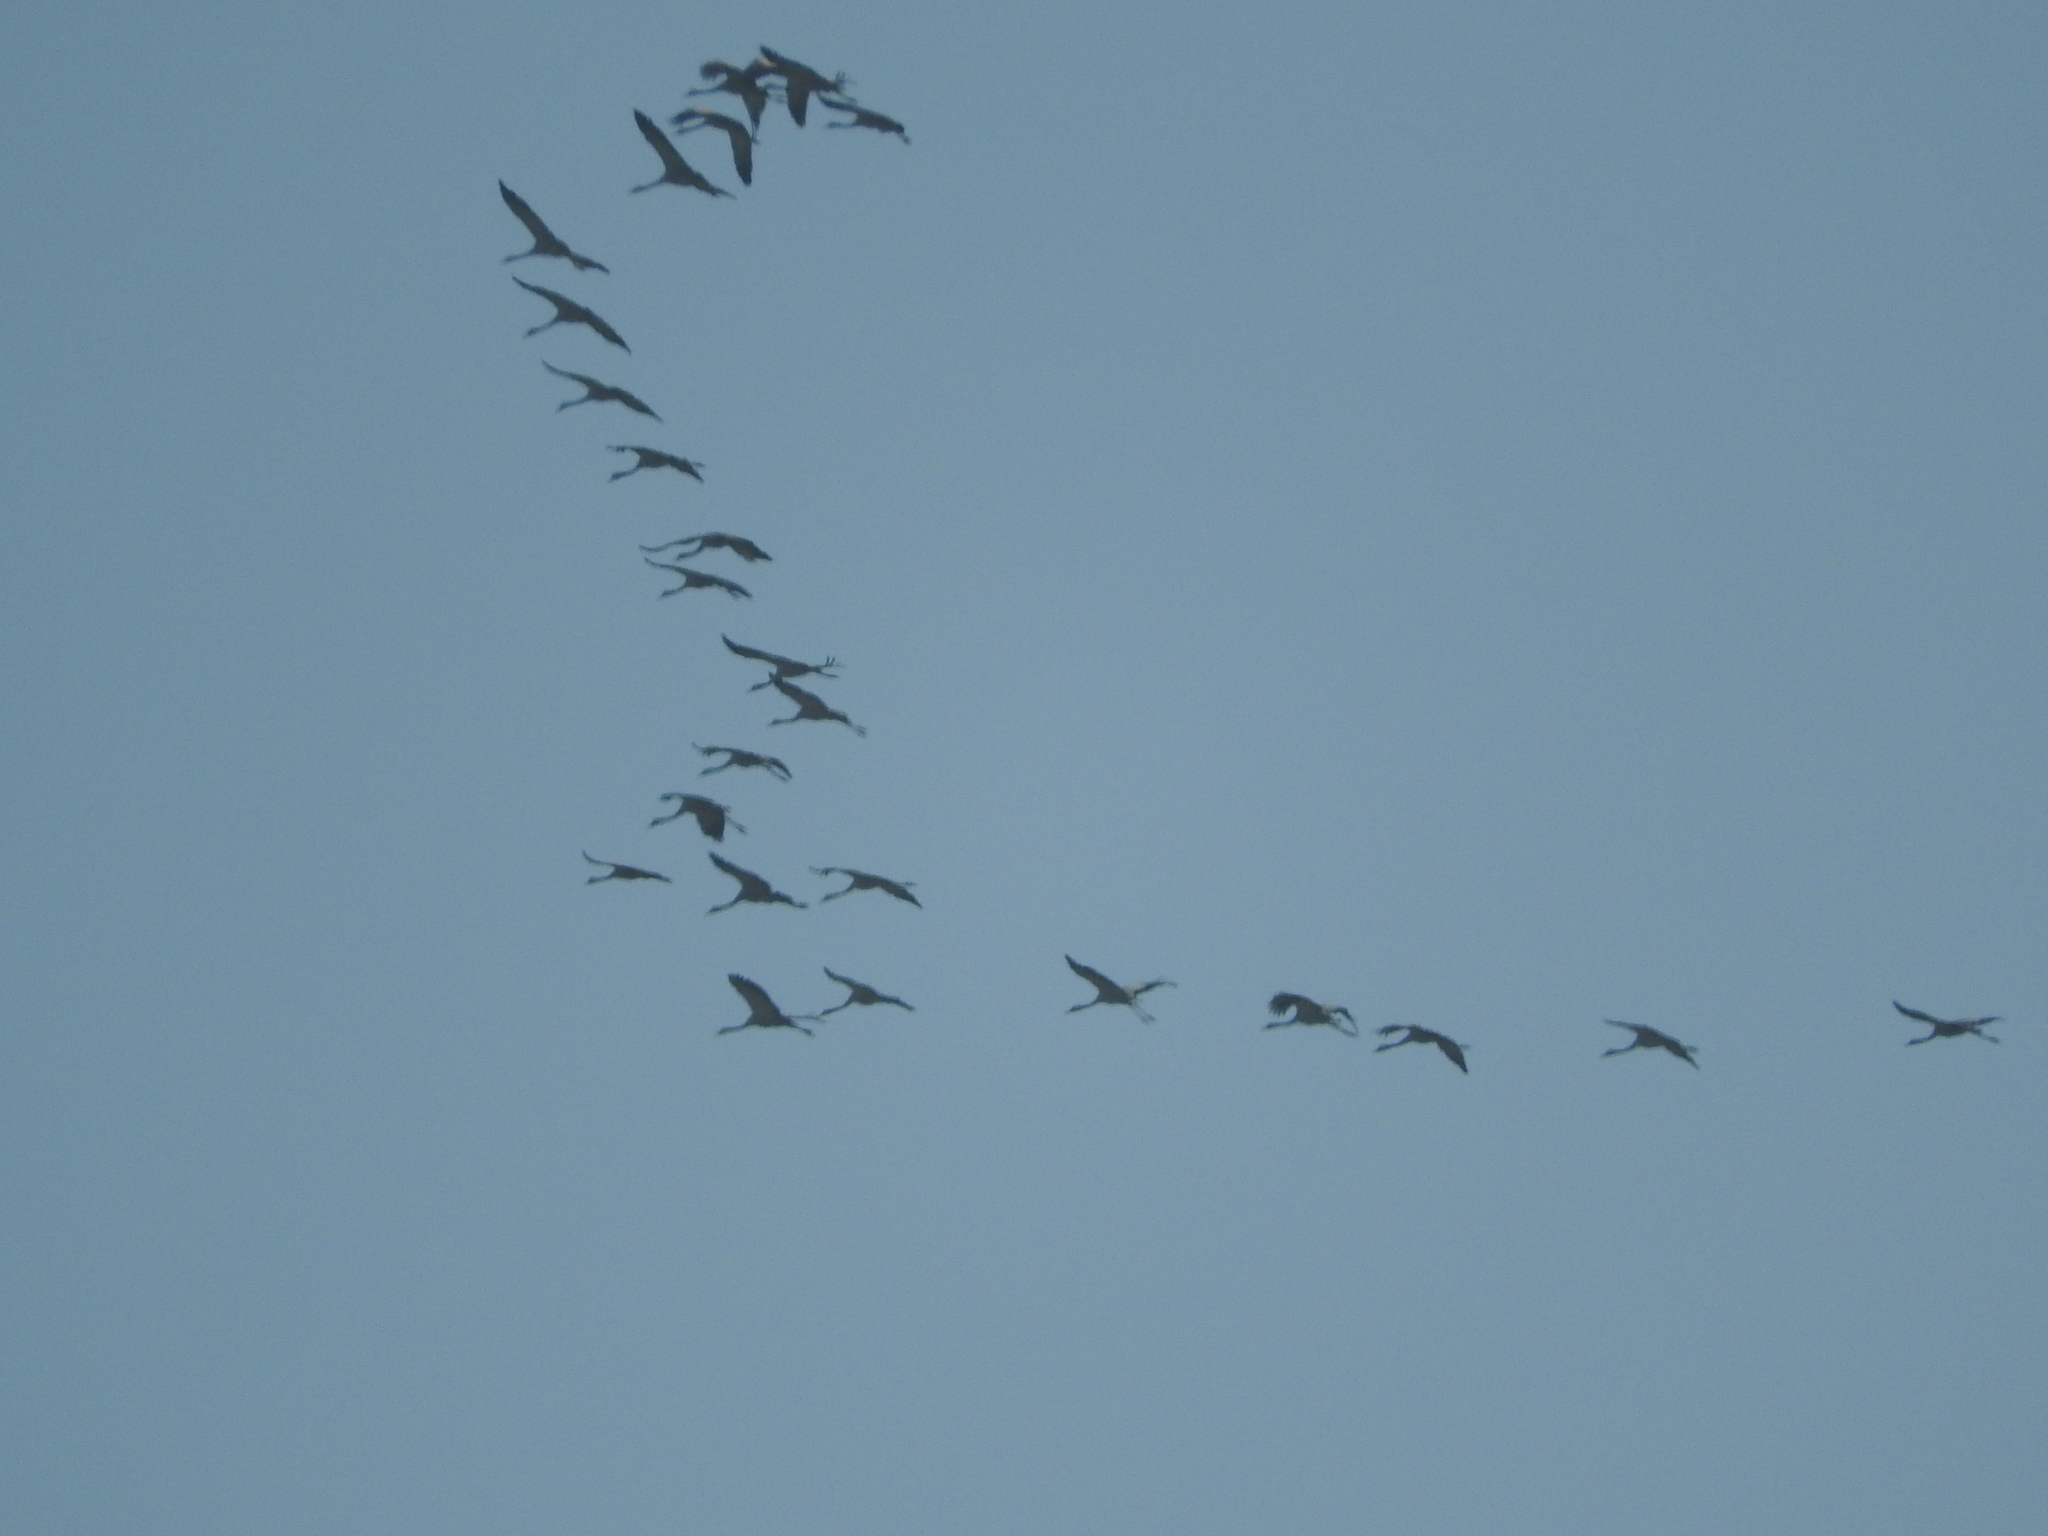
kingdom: Animalia
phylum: Chordata
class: Aves
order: Gruiformes
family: Gruidae
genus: Grus
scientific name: Grus grus
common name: Common crane
